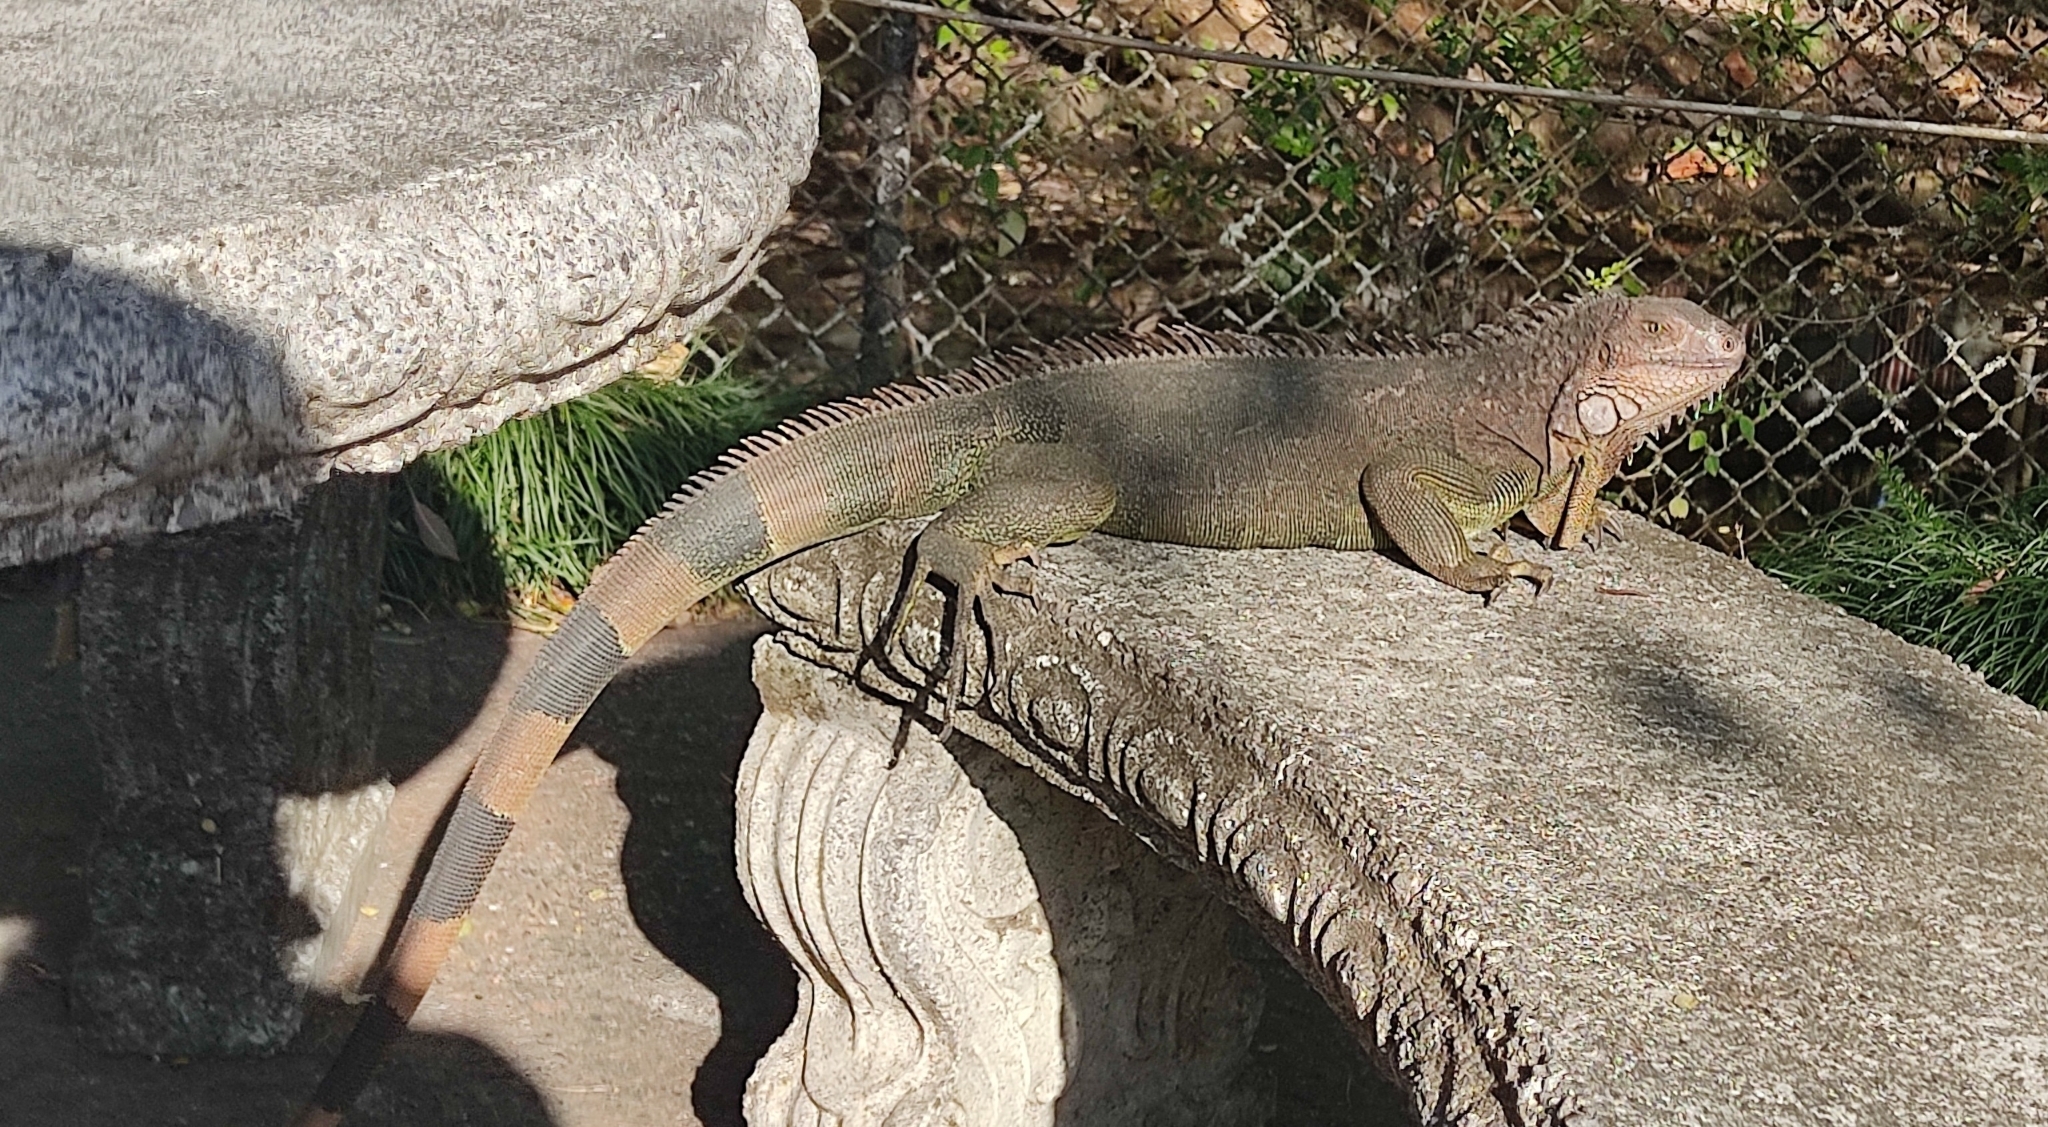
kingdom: Animalia
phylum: Chordata
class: Squamata
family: Iguanidae
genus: Iguana
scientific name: Iguana iguana
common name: Green iguana
